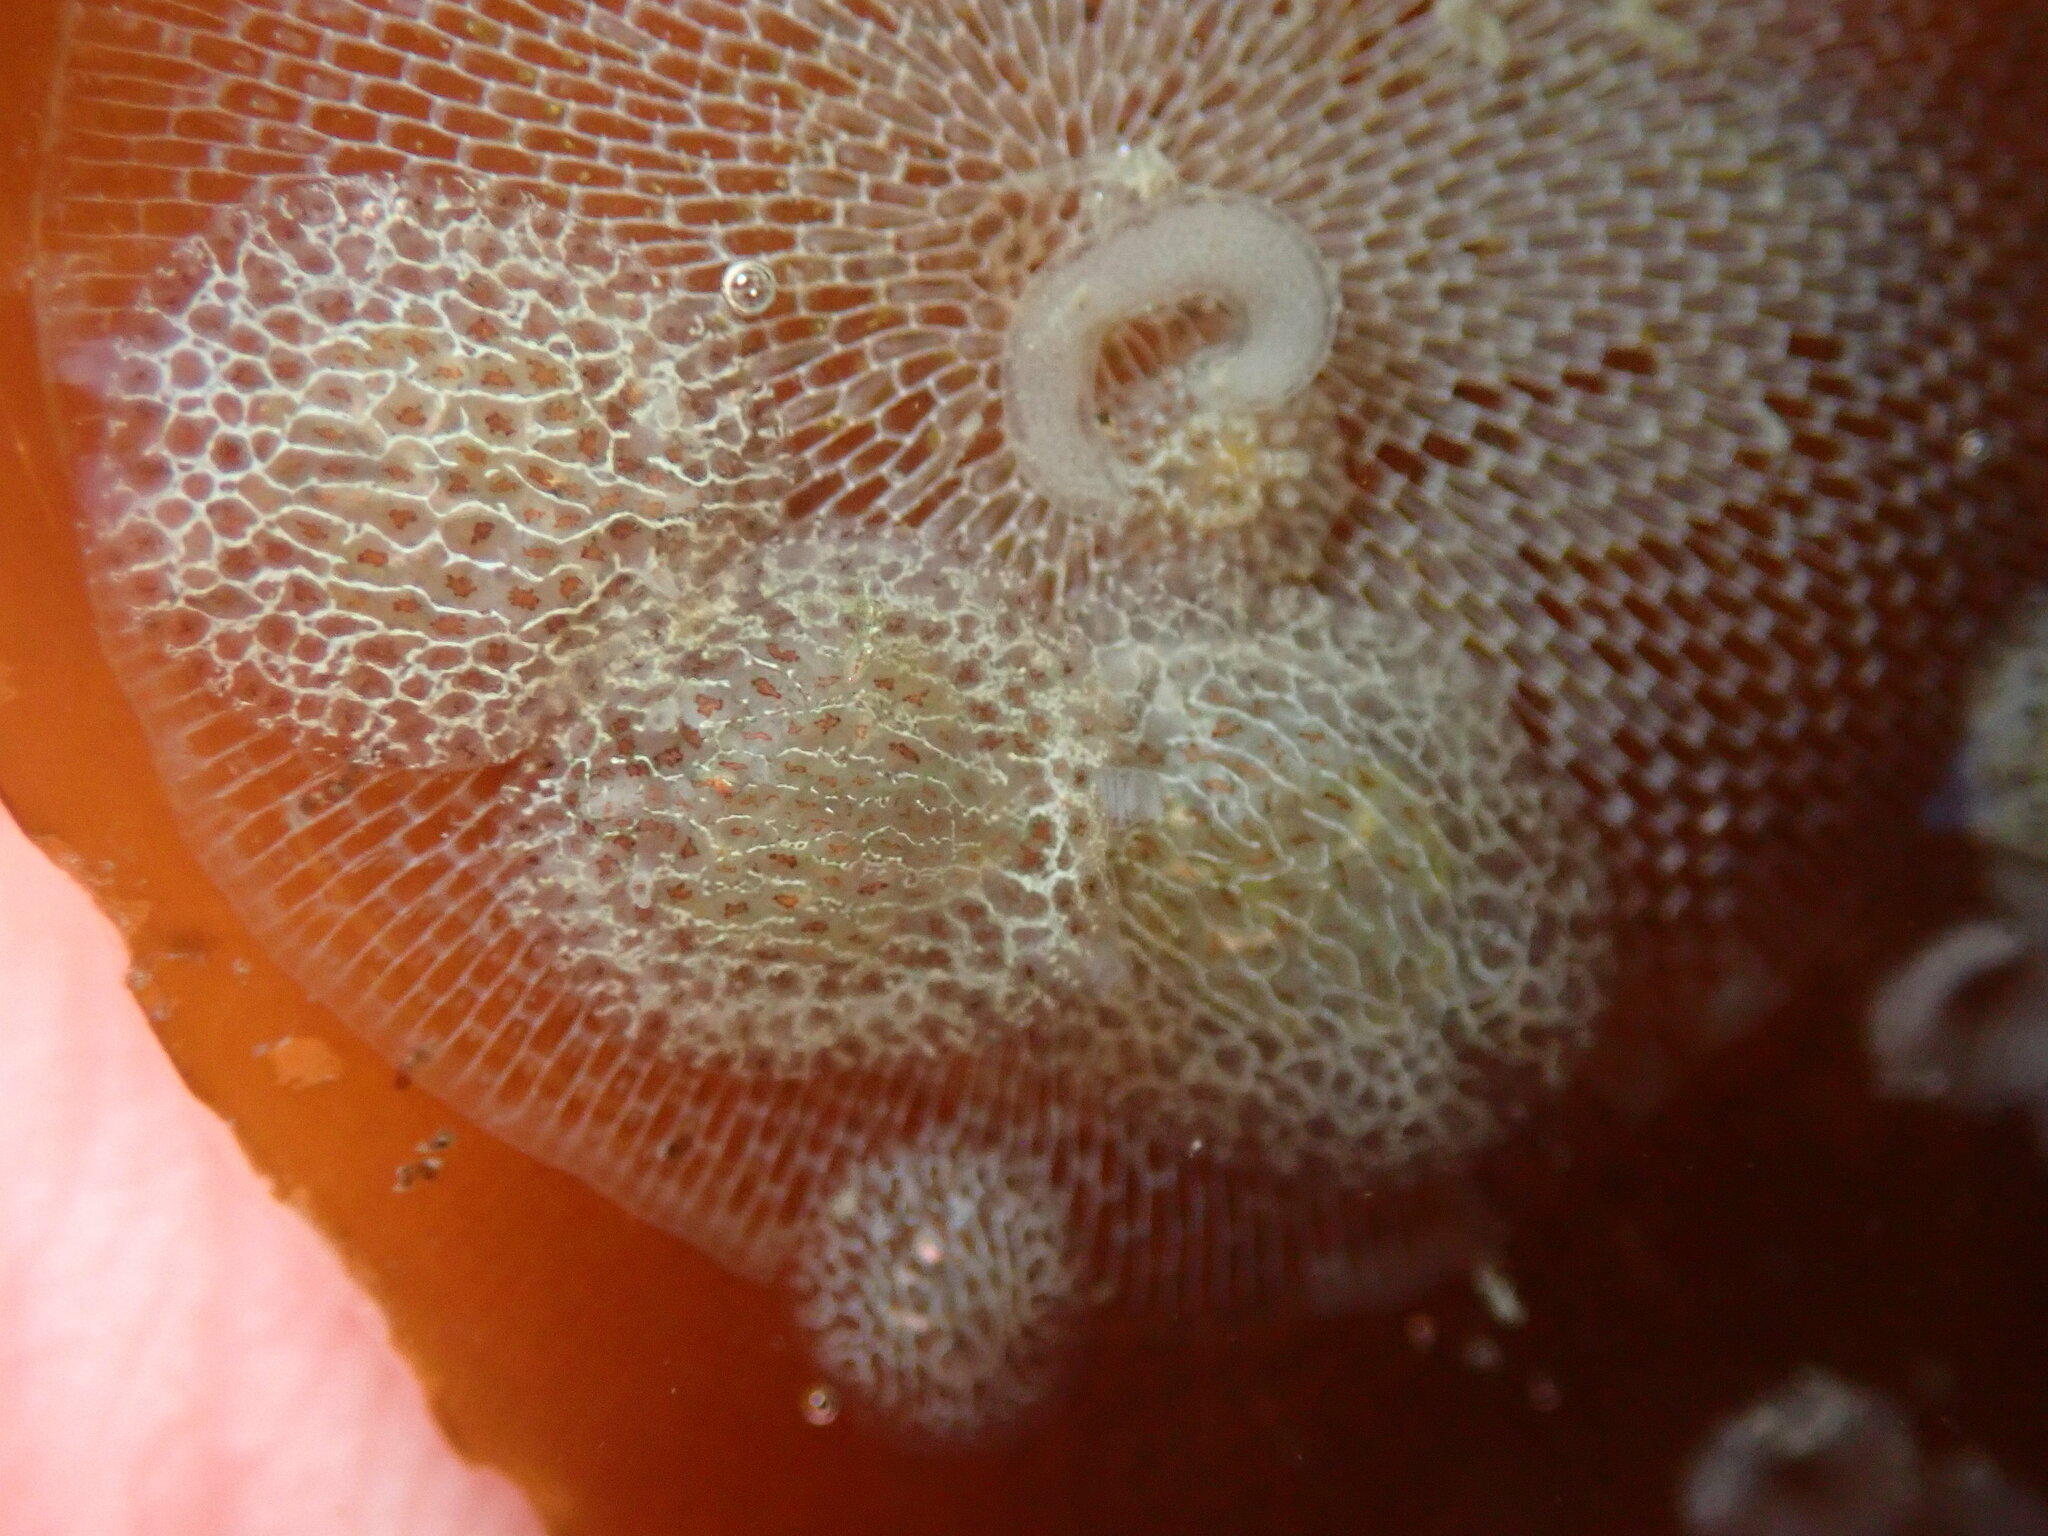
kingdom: Animalia
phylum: Mollusca
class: Gastropoda
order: Nudibranchia
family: Corambidae
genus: Corambe
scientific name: Corambe steinbergae
